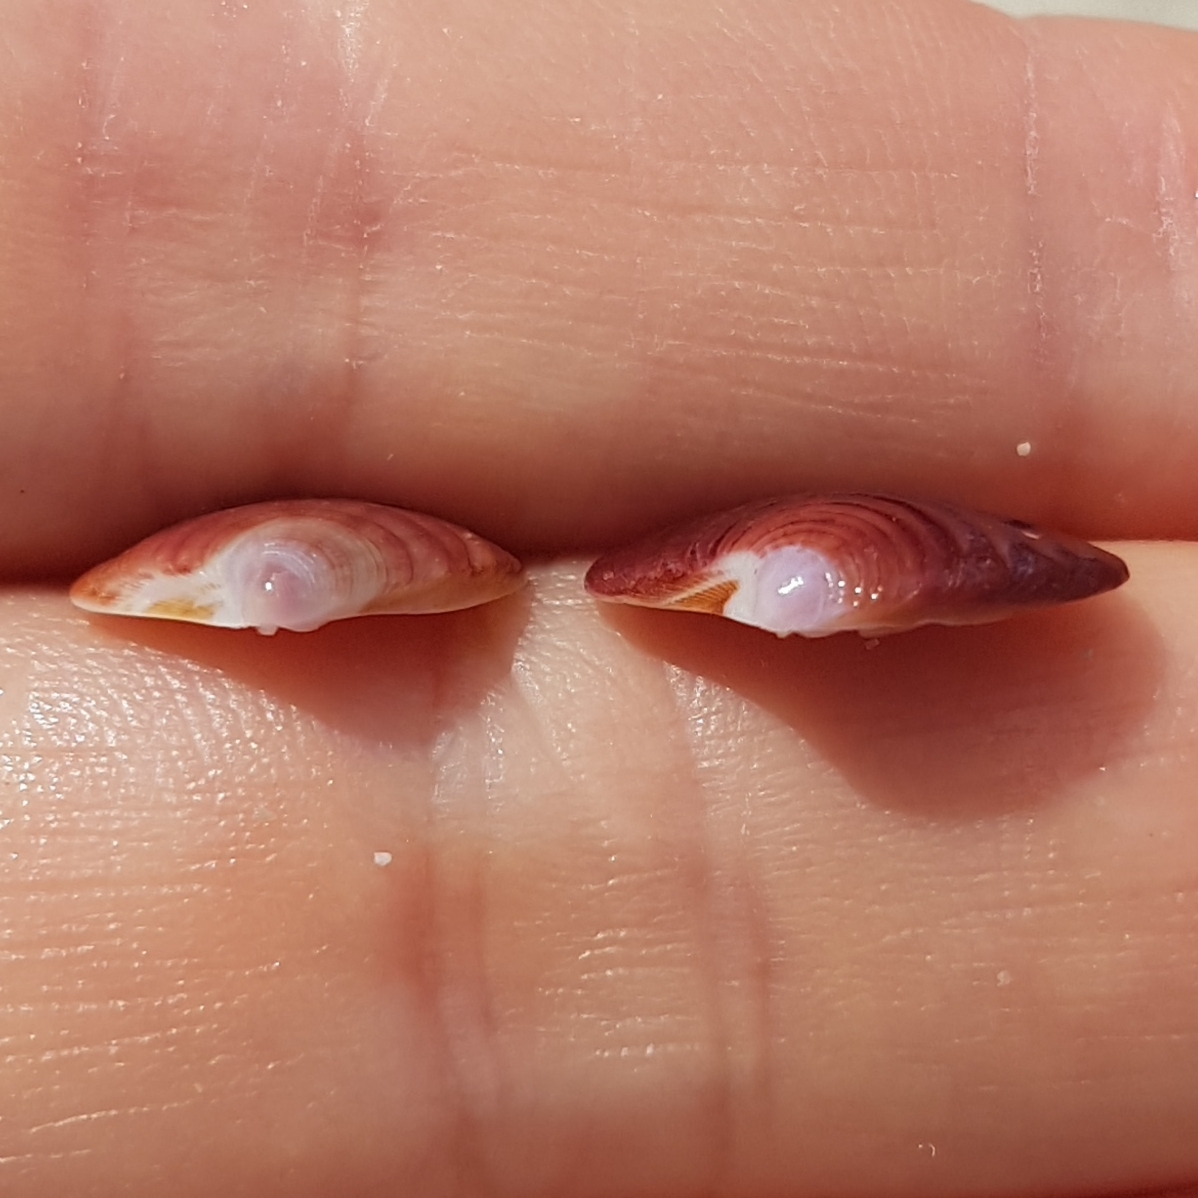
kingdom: Animalia
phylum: Mollusca
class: Bivalvia
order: Venerida
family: Veneridae
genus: Clausinella
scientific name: Clausinella fasciata
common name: Banded venus
